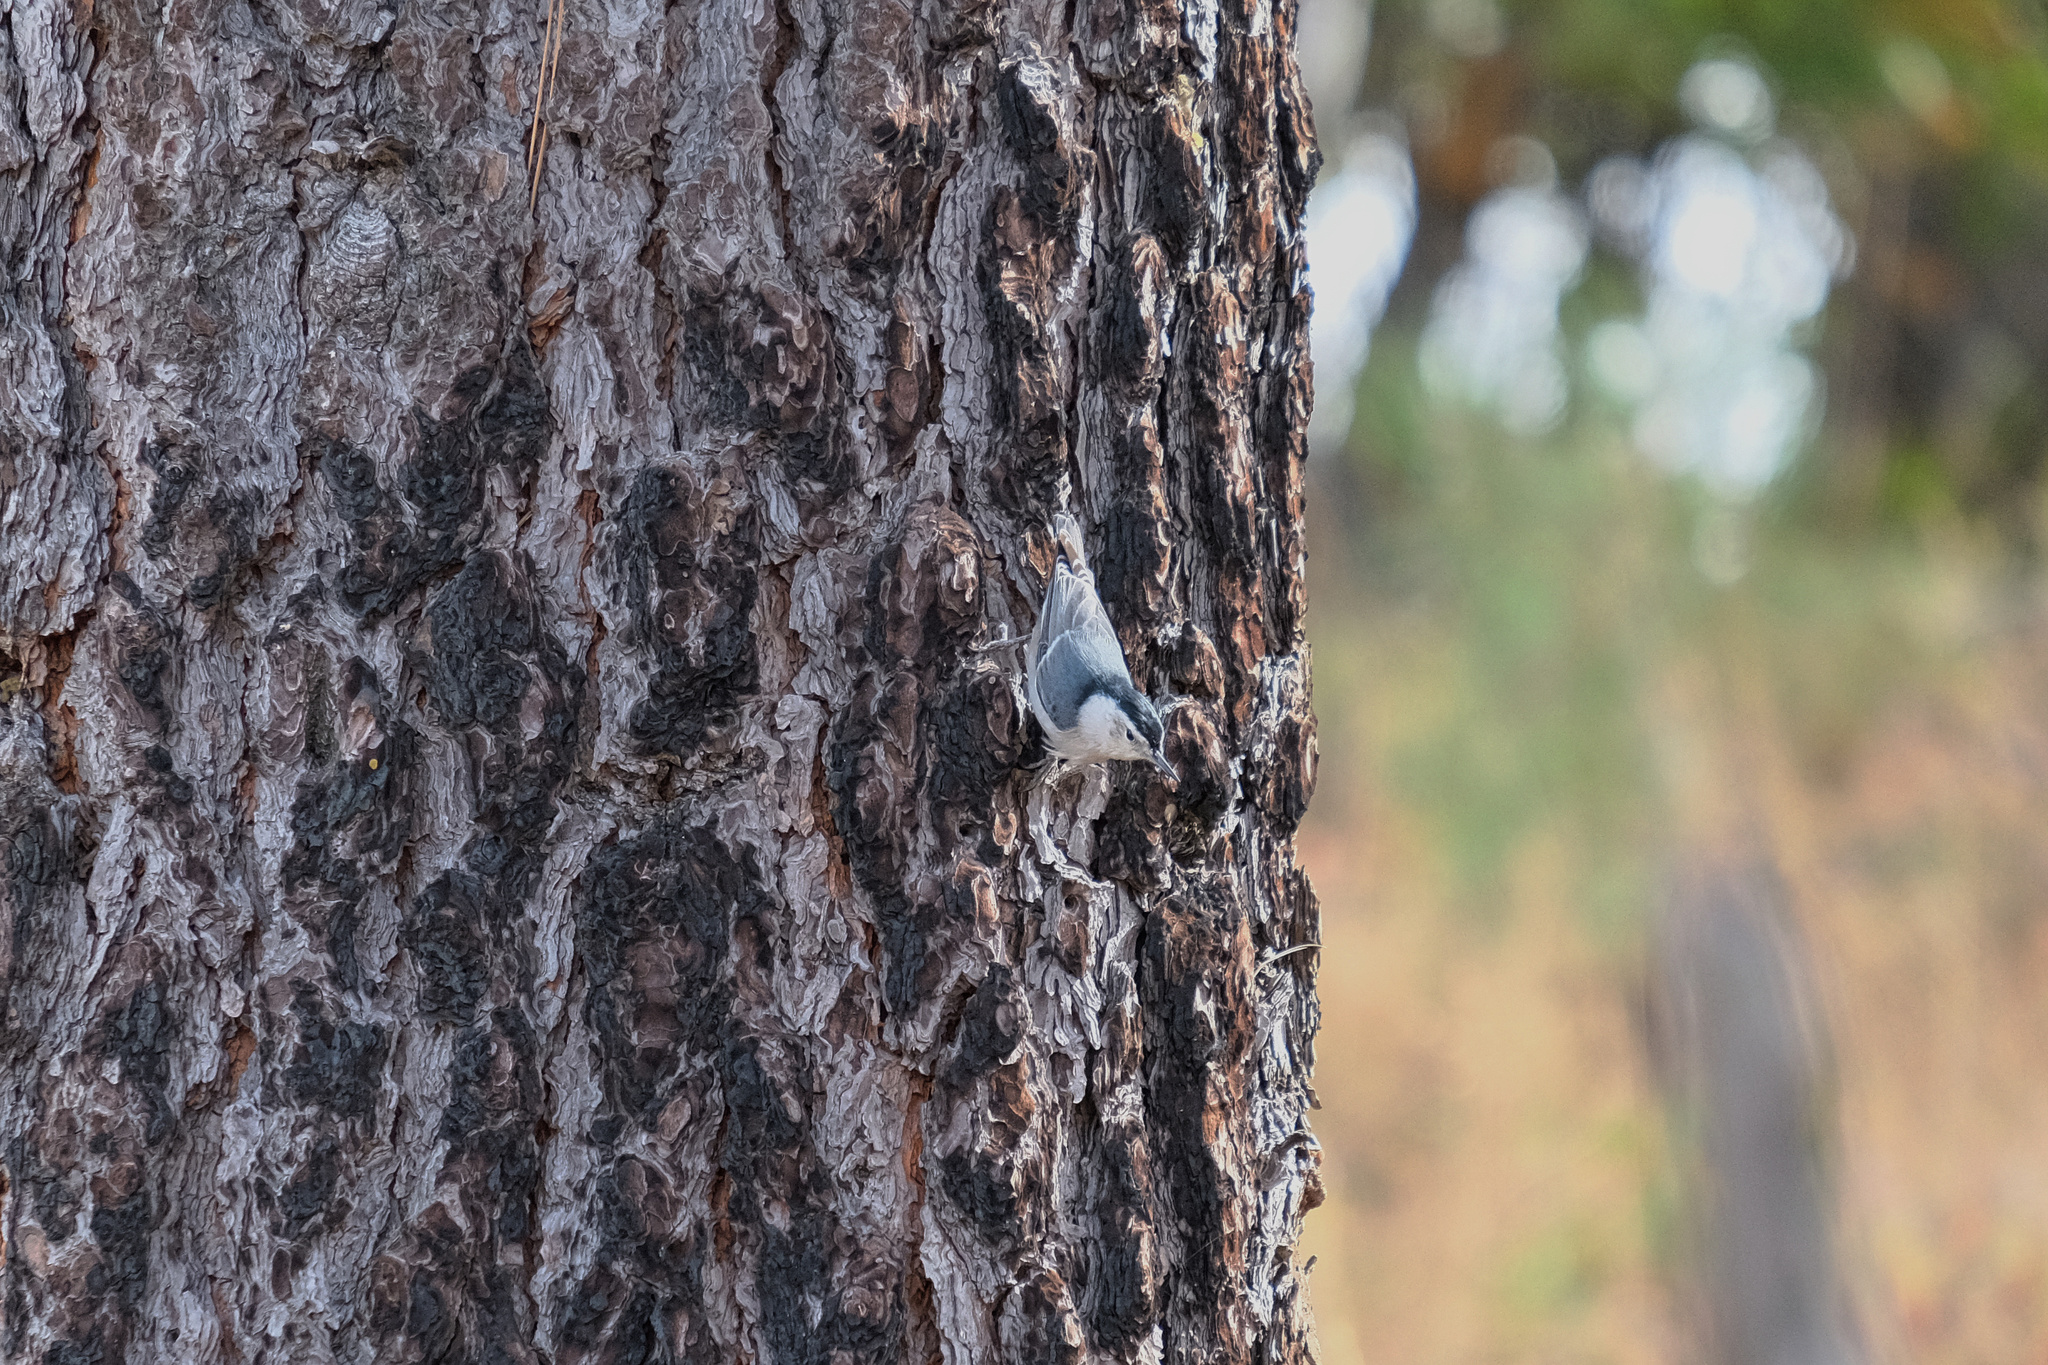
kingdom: Animalia
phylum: Chordata
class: Aves
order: Passeriformes
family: Sittidae
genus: Sitta
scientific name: Sitta carolinensis
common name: White-breasted nuthatch
